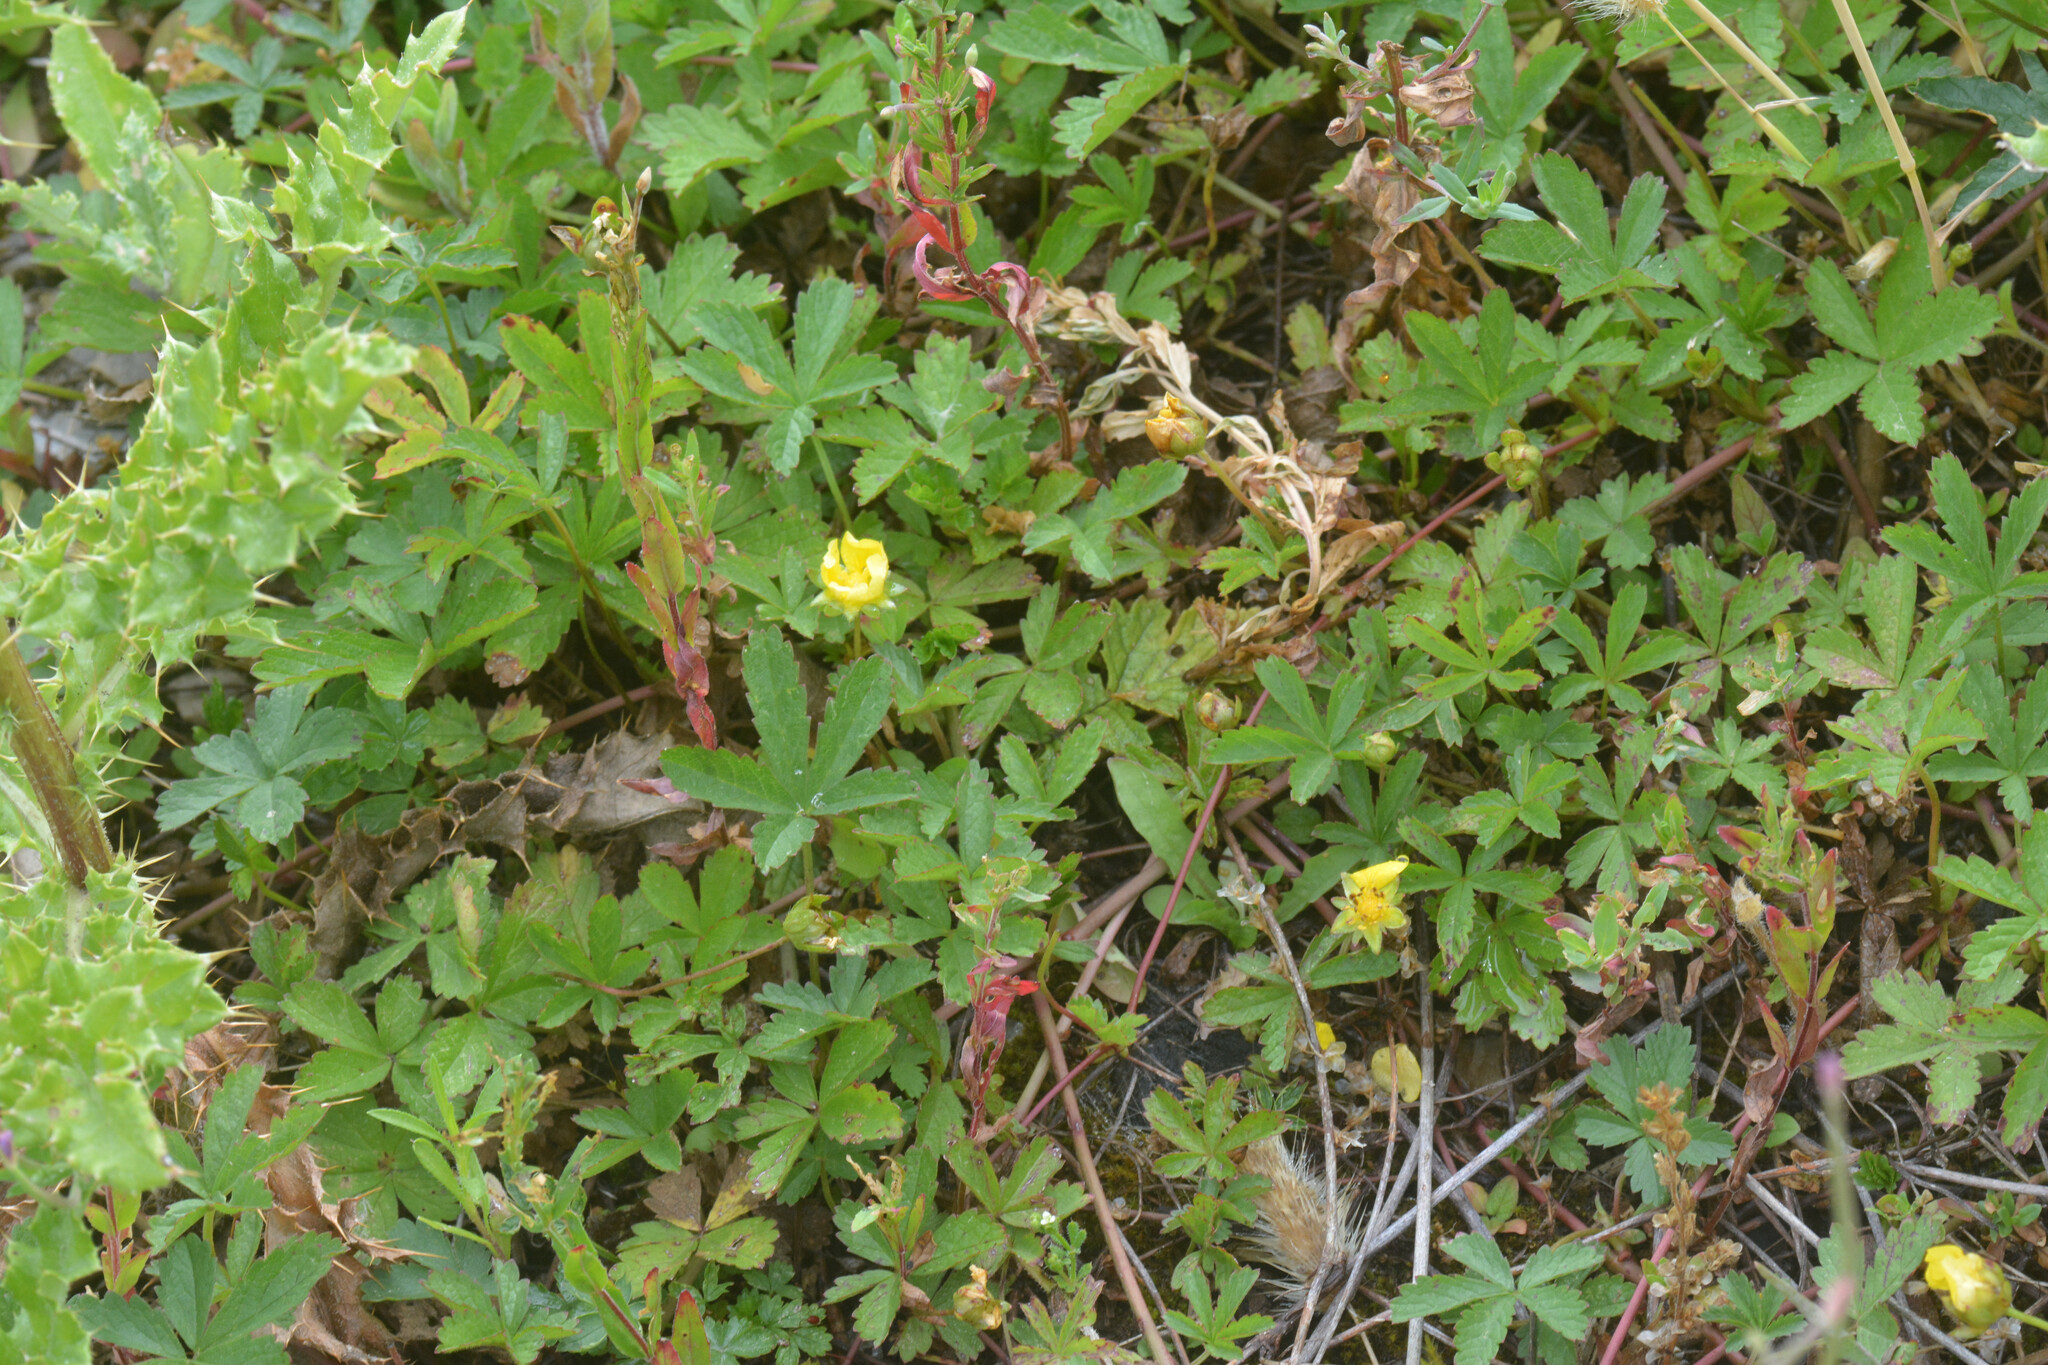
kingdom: Plantae
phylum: Tracheophyta
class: Magnoliopsida
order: Rosales
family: Rosaceae
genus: Potentilla
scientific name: Potentilla reptans
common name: Creeping cinquefoil
